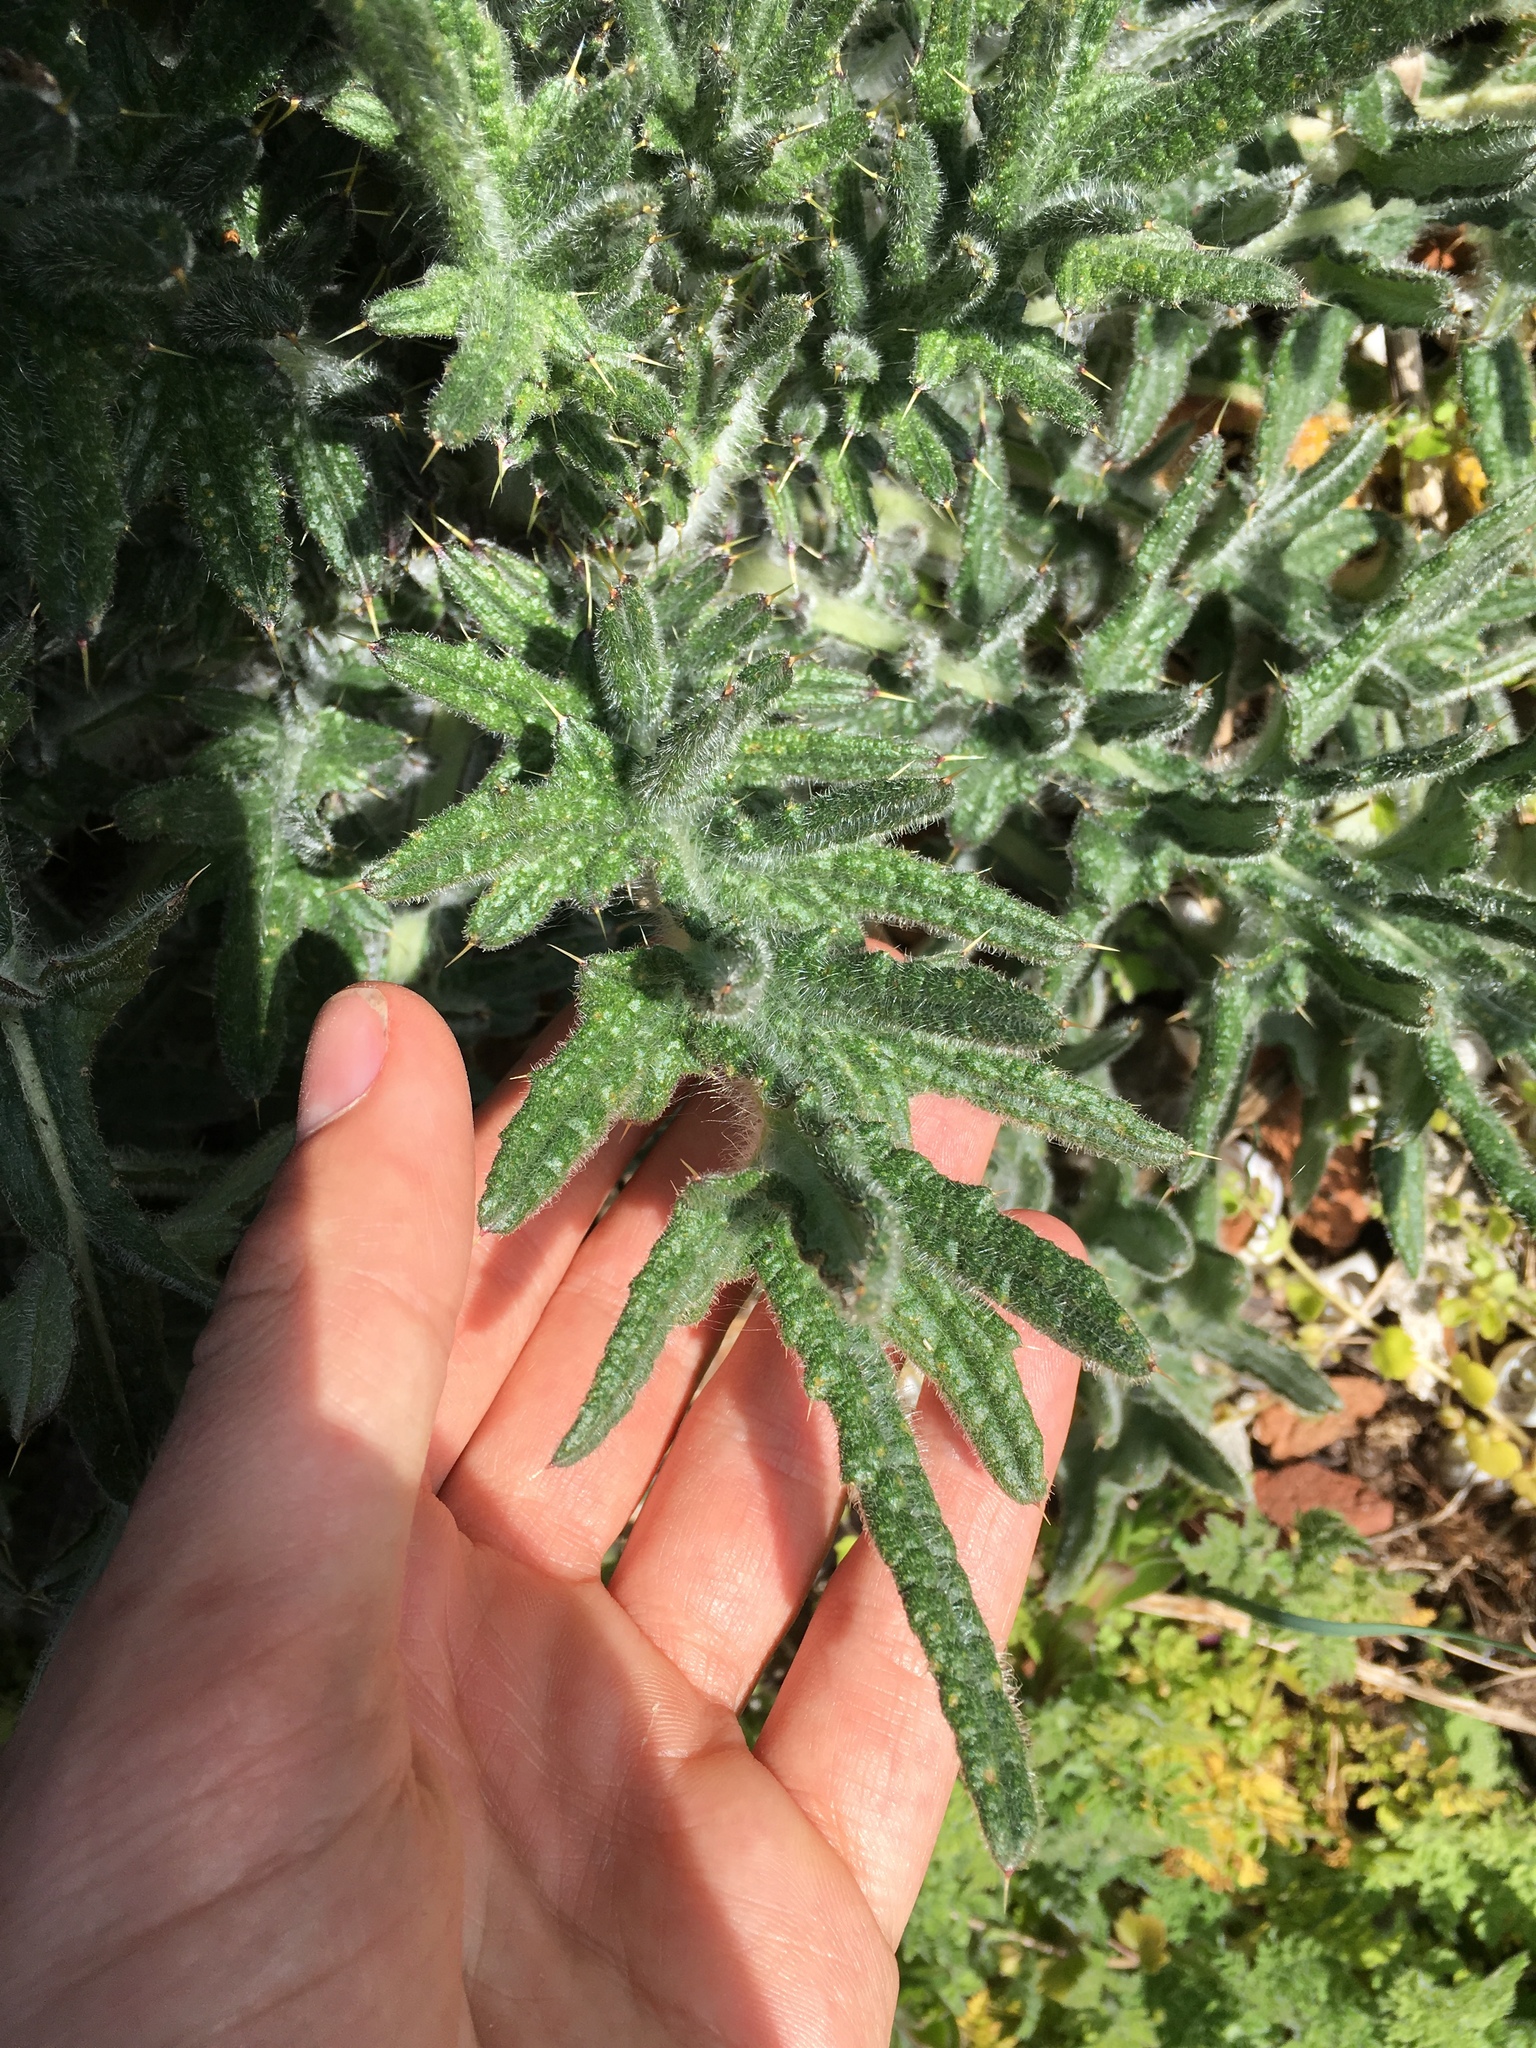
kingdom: Plantae
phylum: Tracheophyta
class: Magnoliopsida
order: Asterales
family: Asteraceae
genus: Cirsium
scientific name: Cirsium vulgare
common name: Bull thistle
